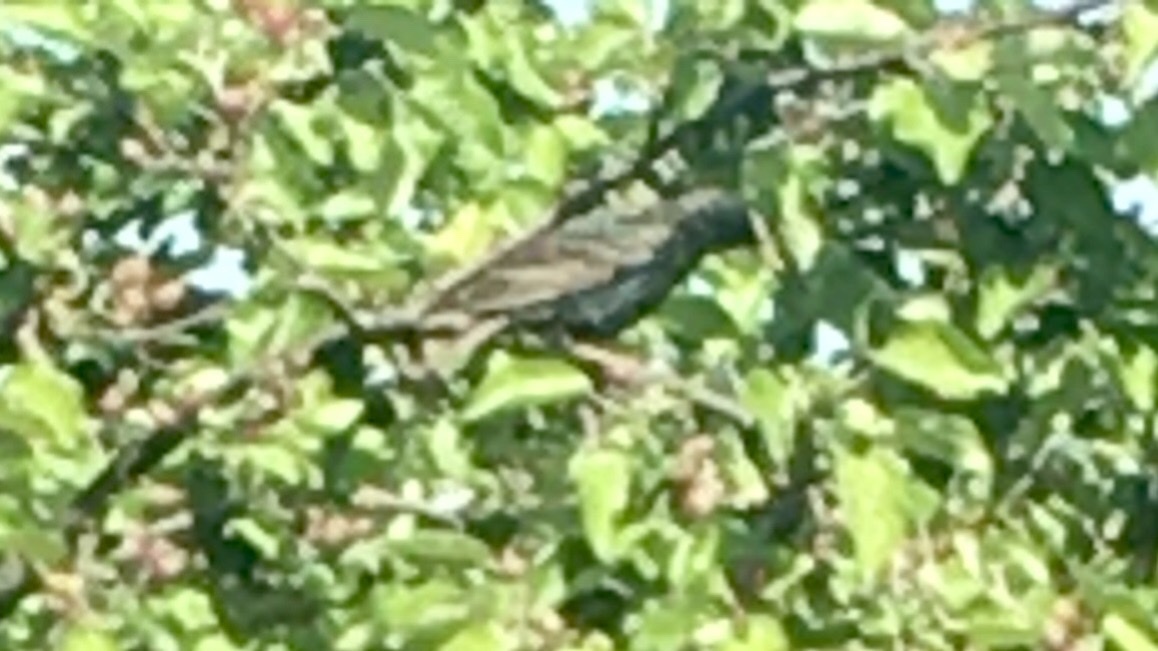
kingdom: Animalia
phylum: Chordata
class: Aves
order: Passeriformes
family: Sturnidae
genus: Sturnus
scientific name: Sturnus vulgaris
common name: Common starling
